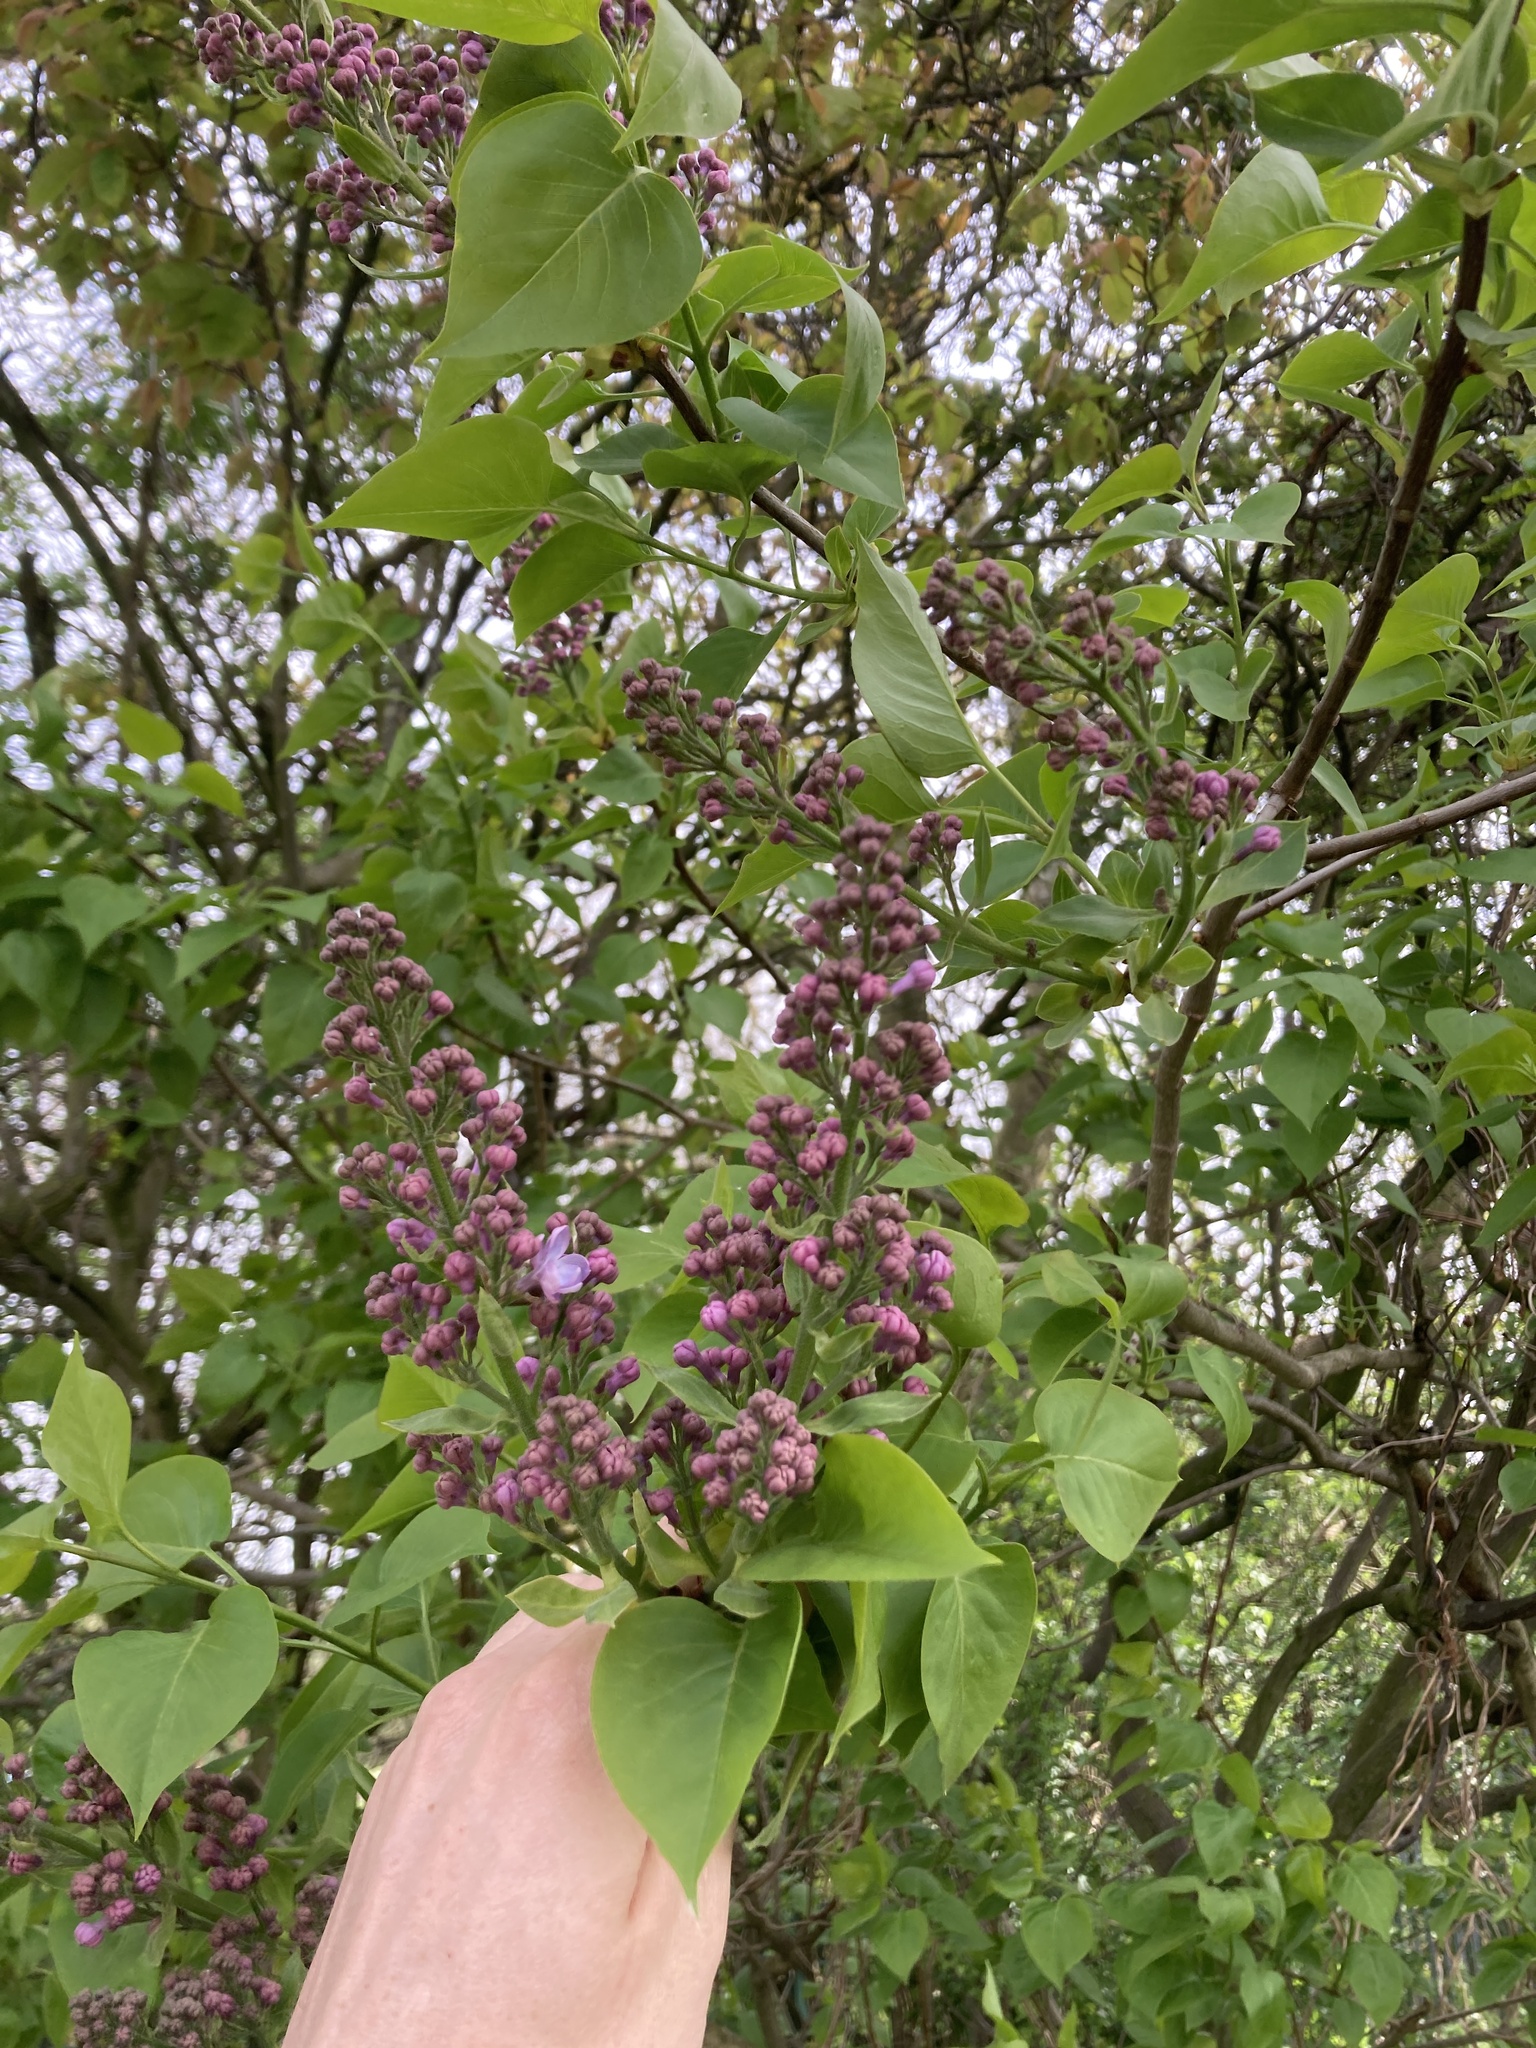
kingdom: Plantae
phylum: Tracheophyta
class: Magnoliopsida
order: Lamiales
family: Oleaceae
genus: Syringa
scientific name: Syringa vulgaris
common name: Common lilac
